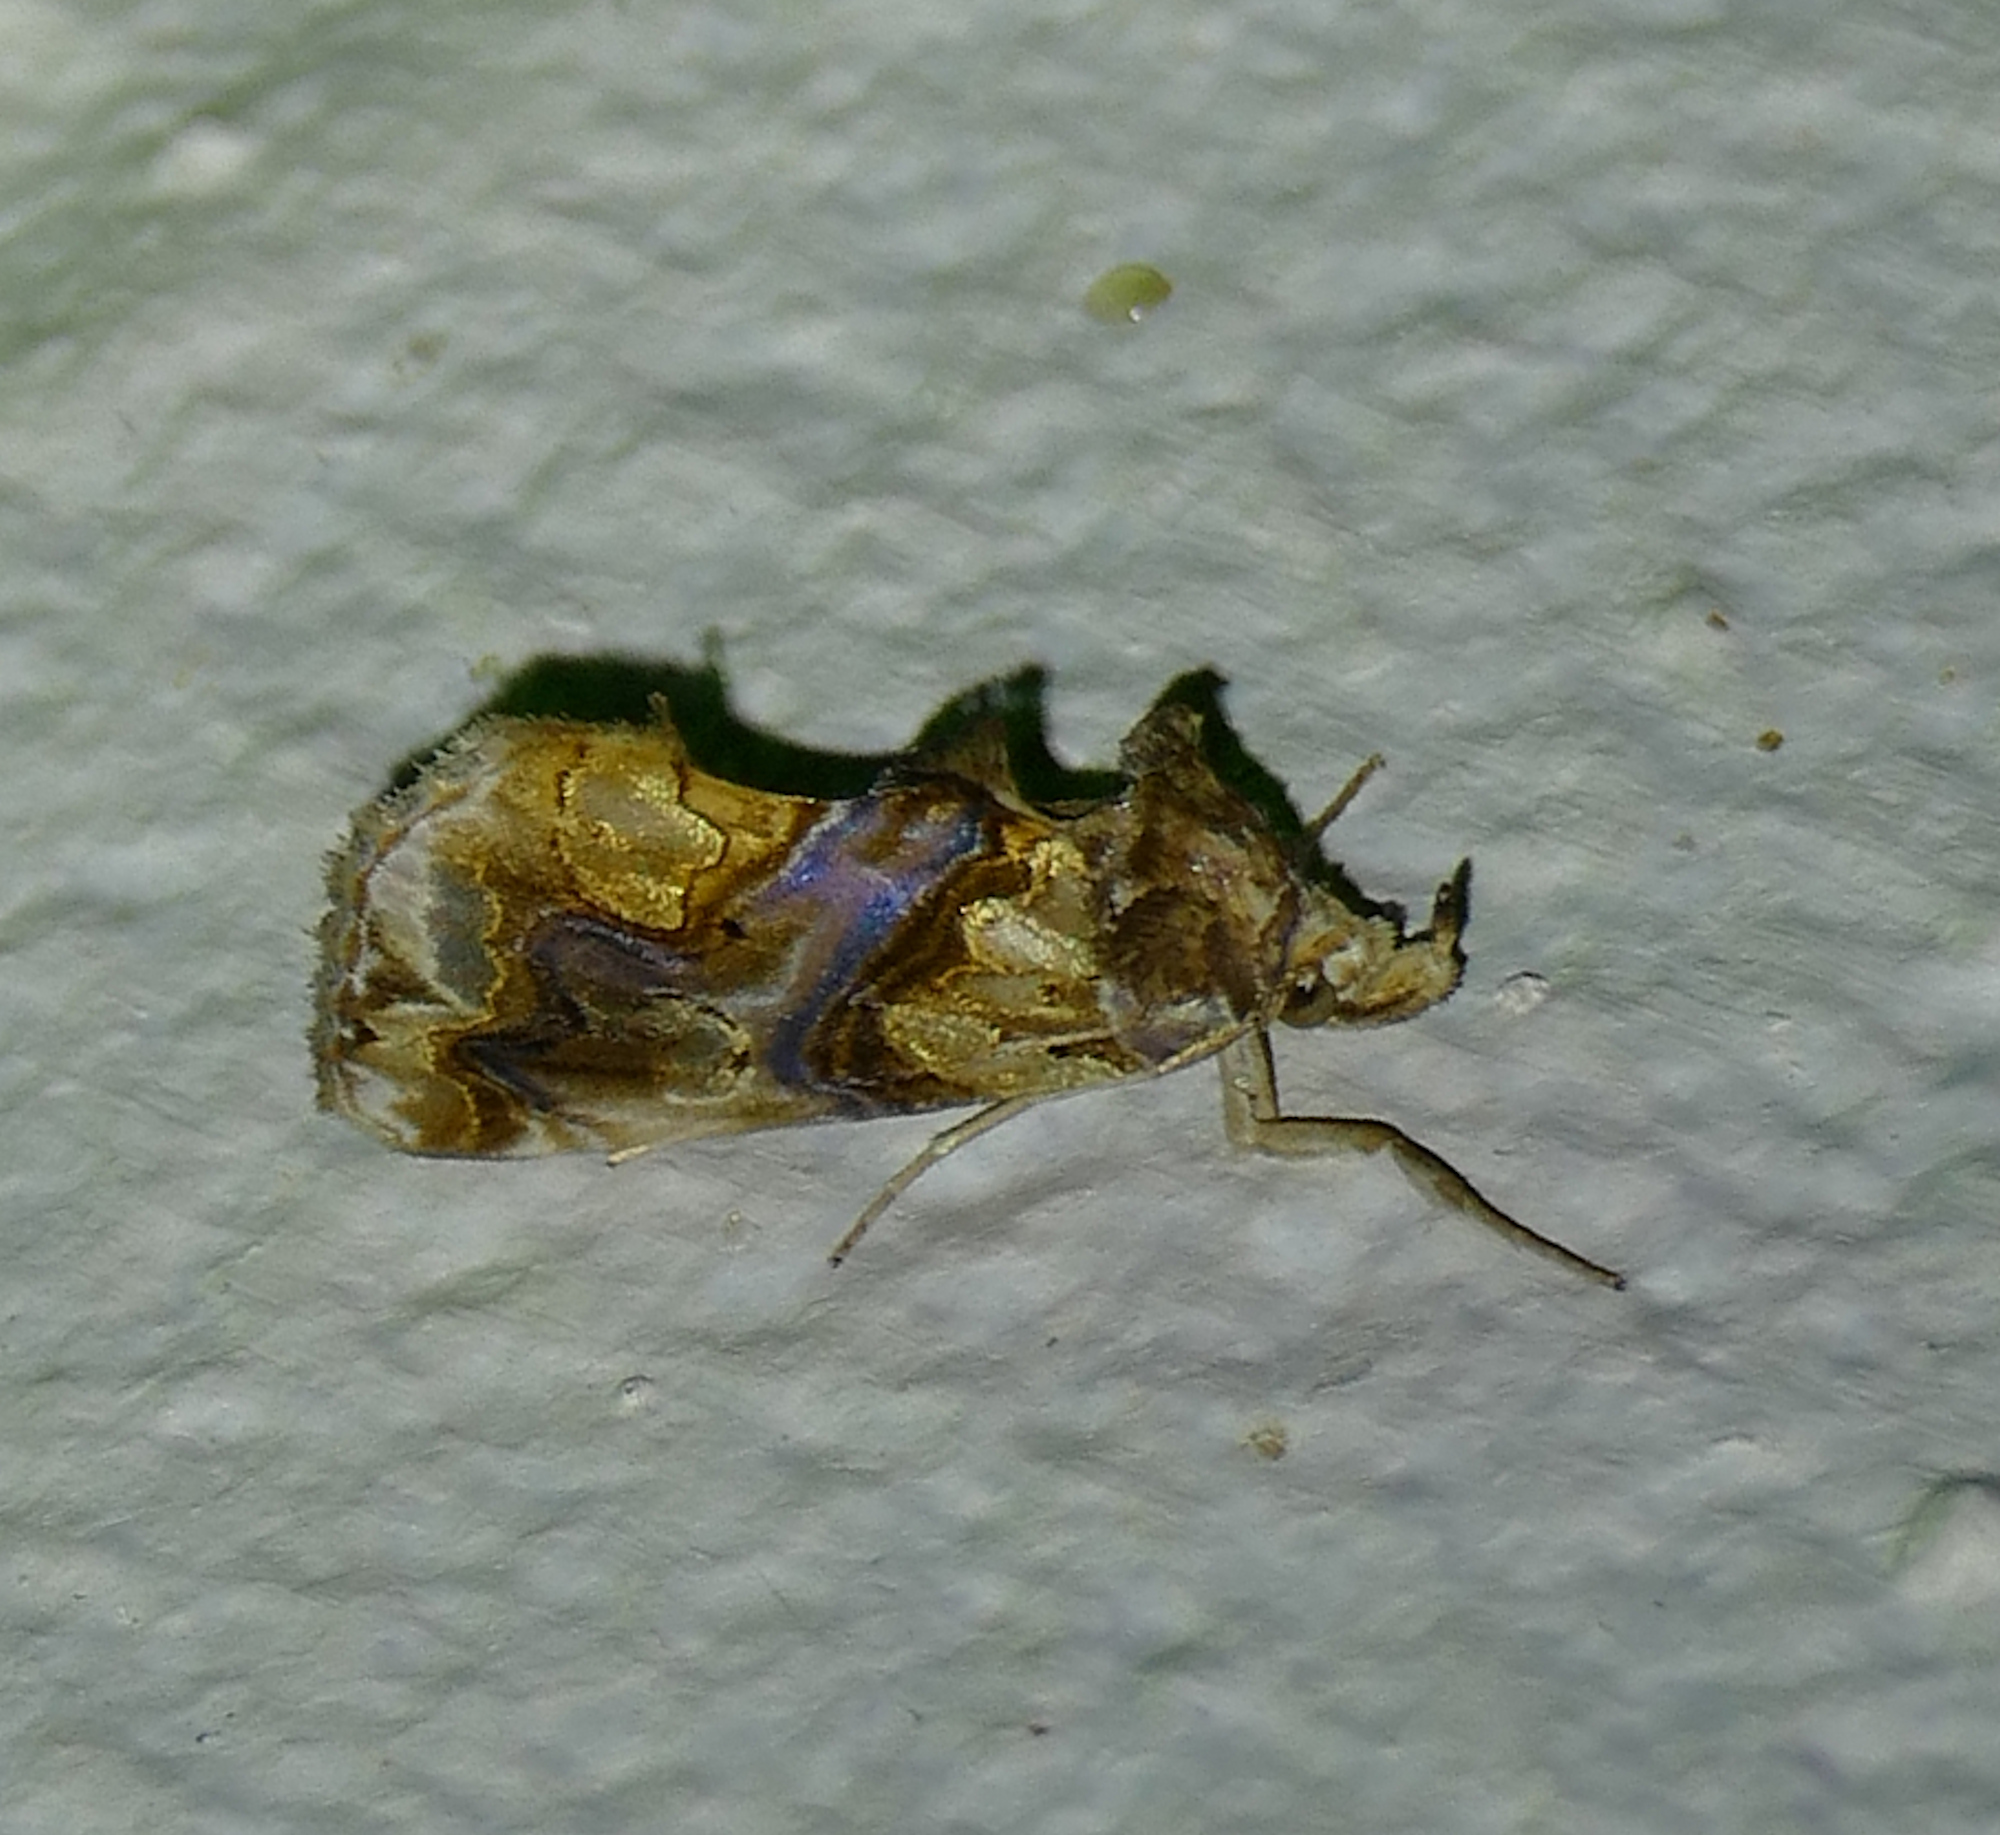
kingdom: Animalia
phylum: Arthropoda
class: Insecta
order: Lepidoptera
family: Erebidae
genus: Plusiodonta
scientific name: Plusiodonta compressipalpis
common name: Moonseed moth
